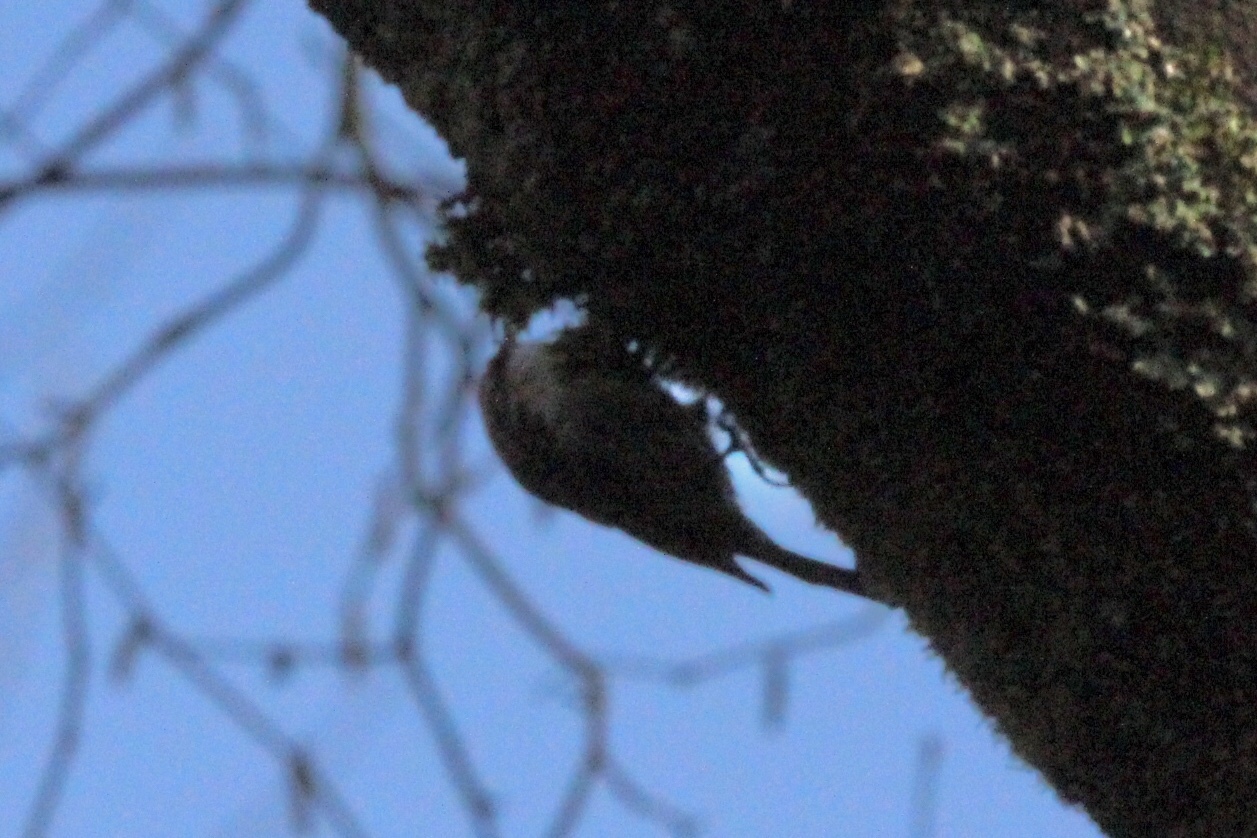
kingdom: Animalia
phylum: Chordata
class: Aves
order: Passeriformes
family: Certhiidae
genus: Certhia
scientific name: Certhia americana
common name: Brown creeper
